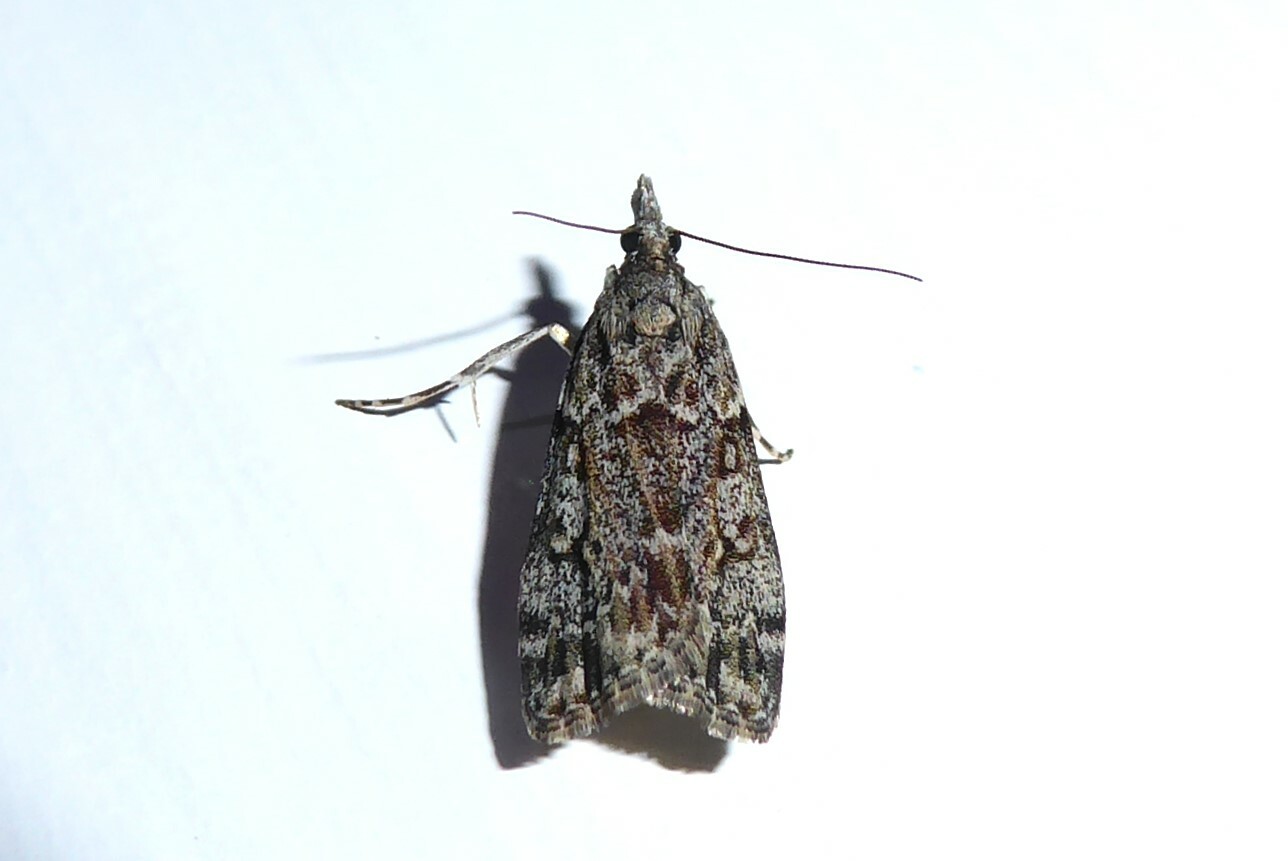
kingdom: Animalia
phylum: Arthropoda
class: Insecta
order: Lepidoptera
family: Crambidae
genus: Eudonia
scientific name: Eudonia cymatias
